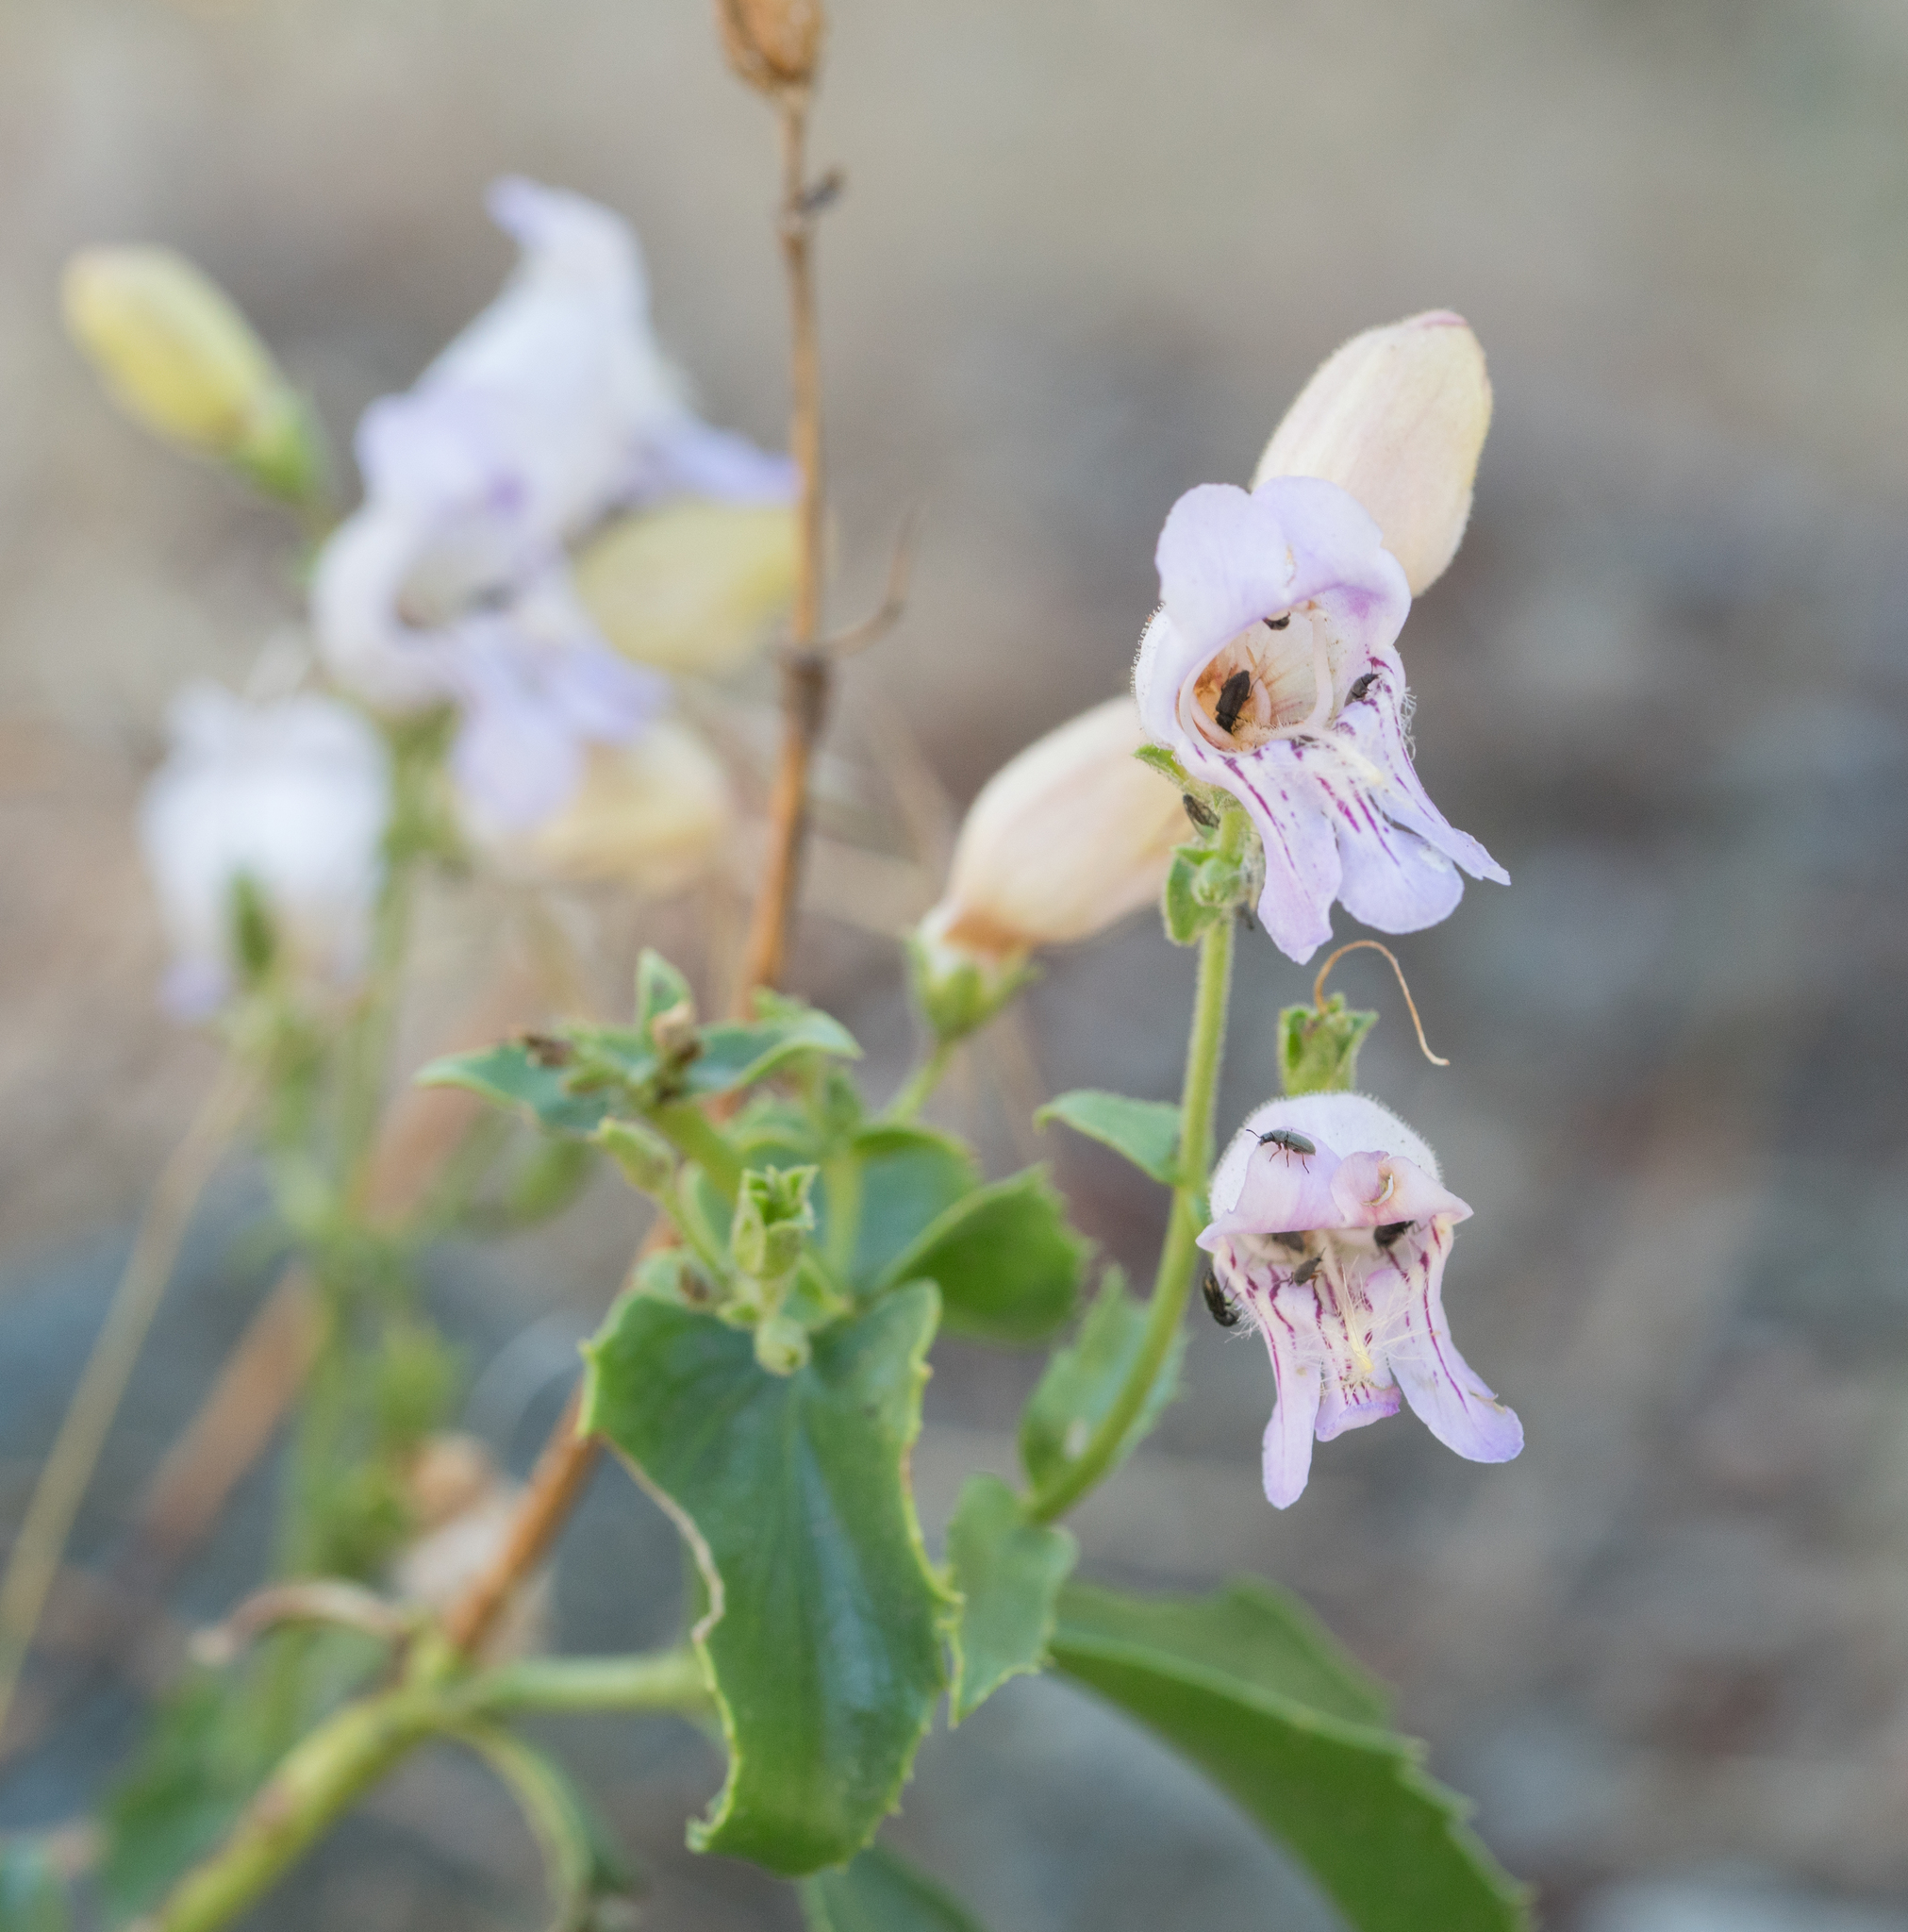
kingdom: Plantae
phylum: Tracheophyta
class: Magnoliopsida
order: Lamiales
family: Plantaginaceae
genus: Penstemon
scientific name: Penstemon grinnellii
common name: Grinnell's beardtongue
